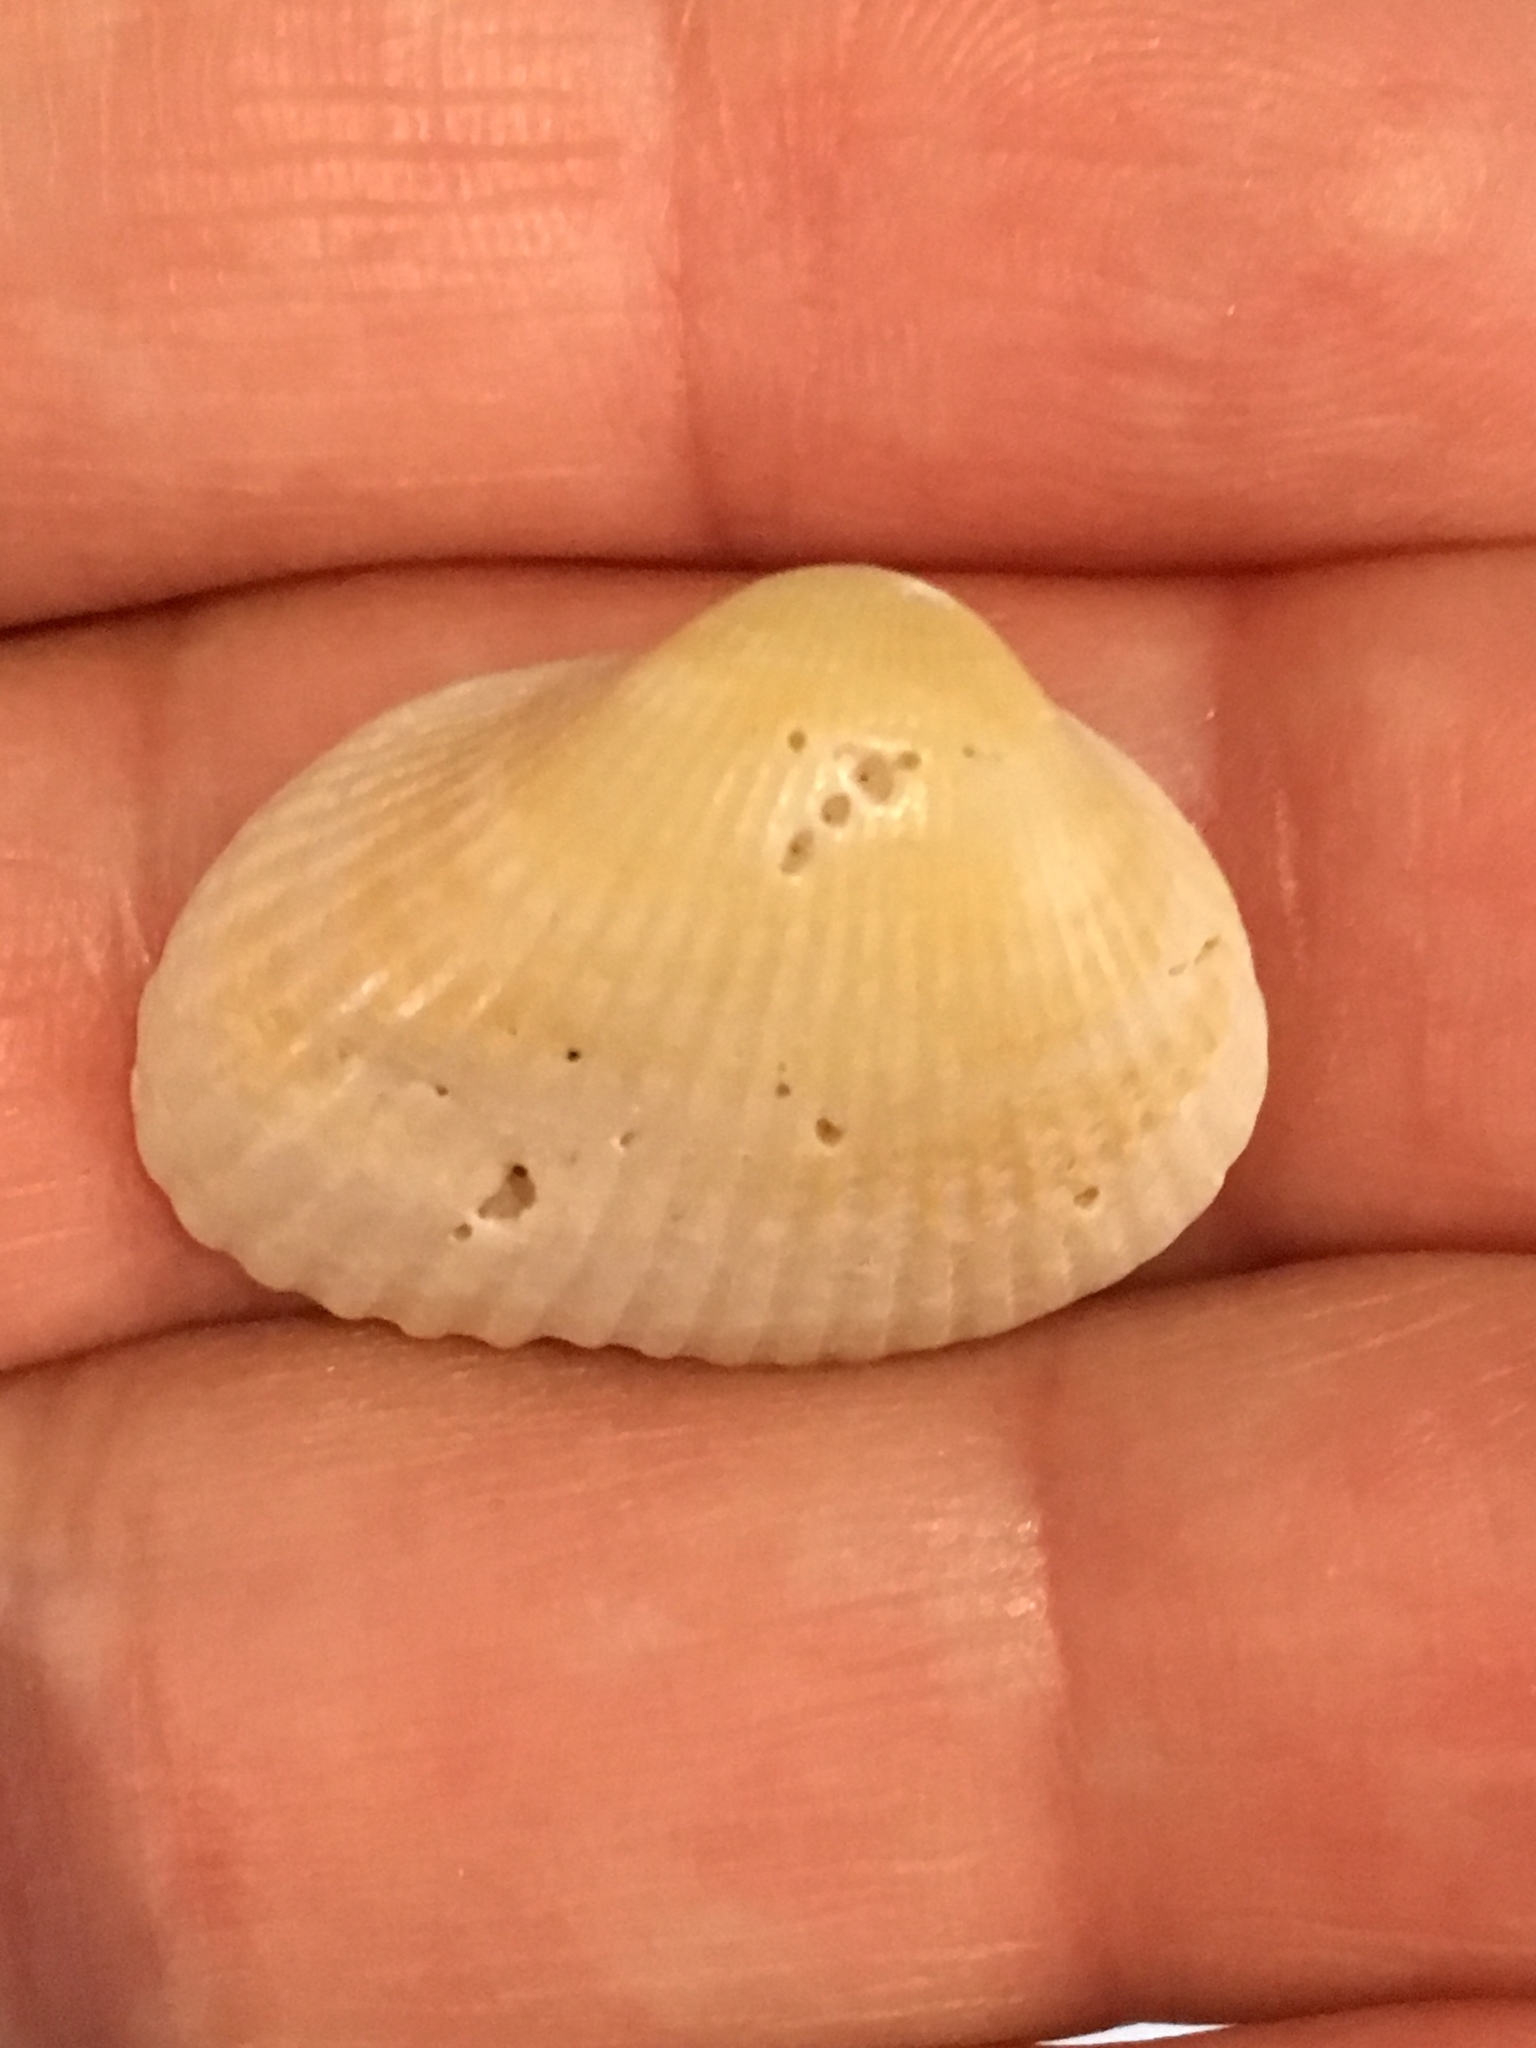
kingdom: Animalia
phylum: Mollusca
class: Bivalvia
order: Arcida
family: Arcidae
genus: Anadara
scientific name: Anadara transversa
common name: Transverse ark
